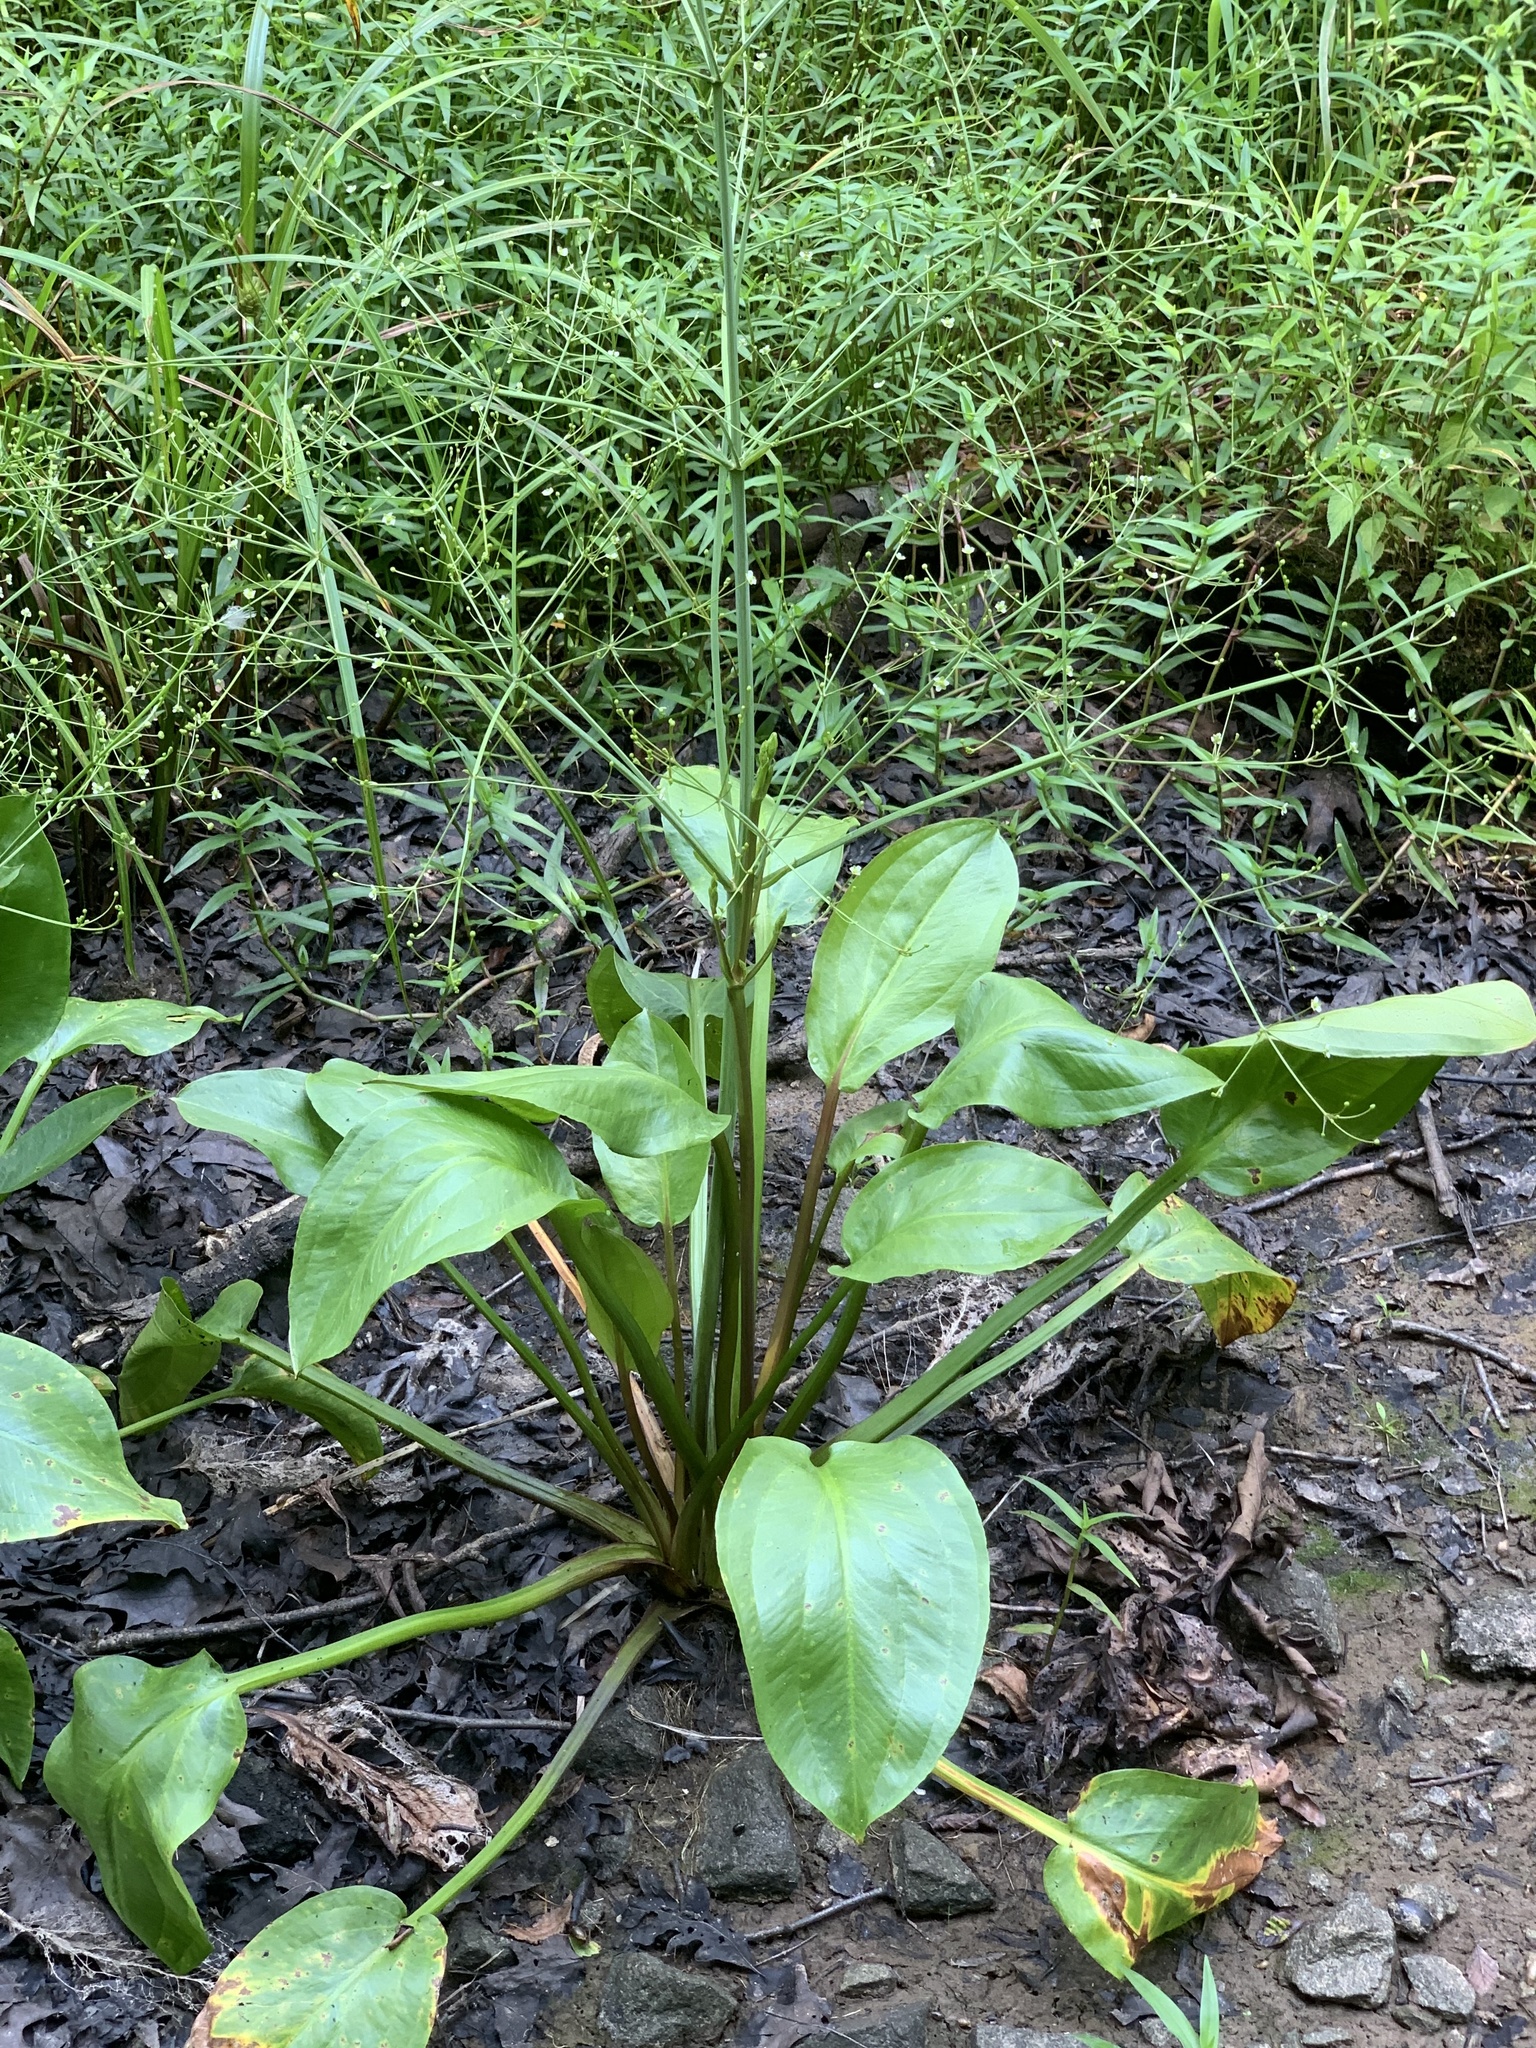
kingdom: Plantae
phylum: Tracheophyta
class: Liliopsida
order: Alismatales
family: Alismataceae
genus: Alisma
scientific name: Alisma subcordatum
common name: Southern water-plantain
